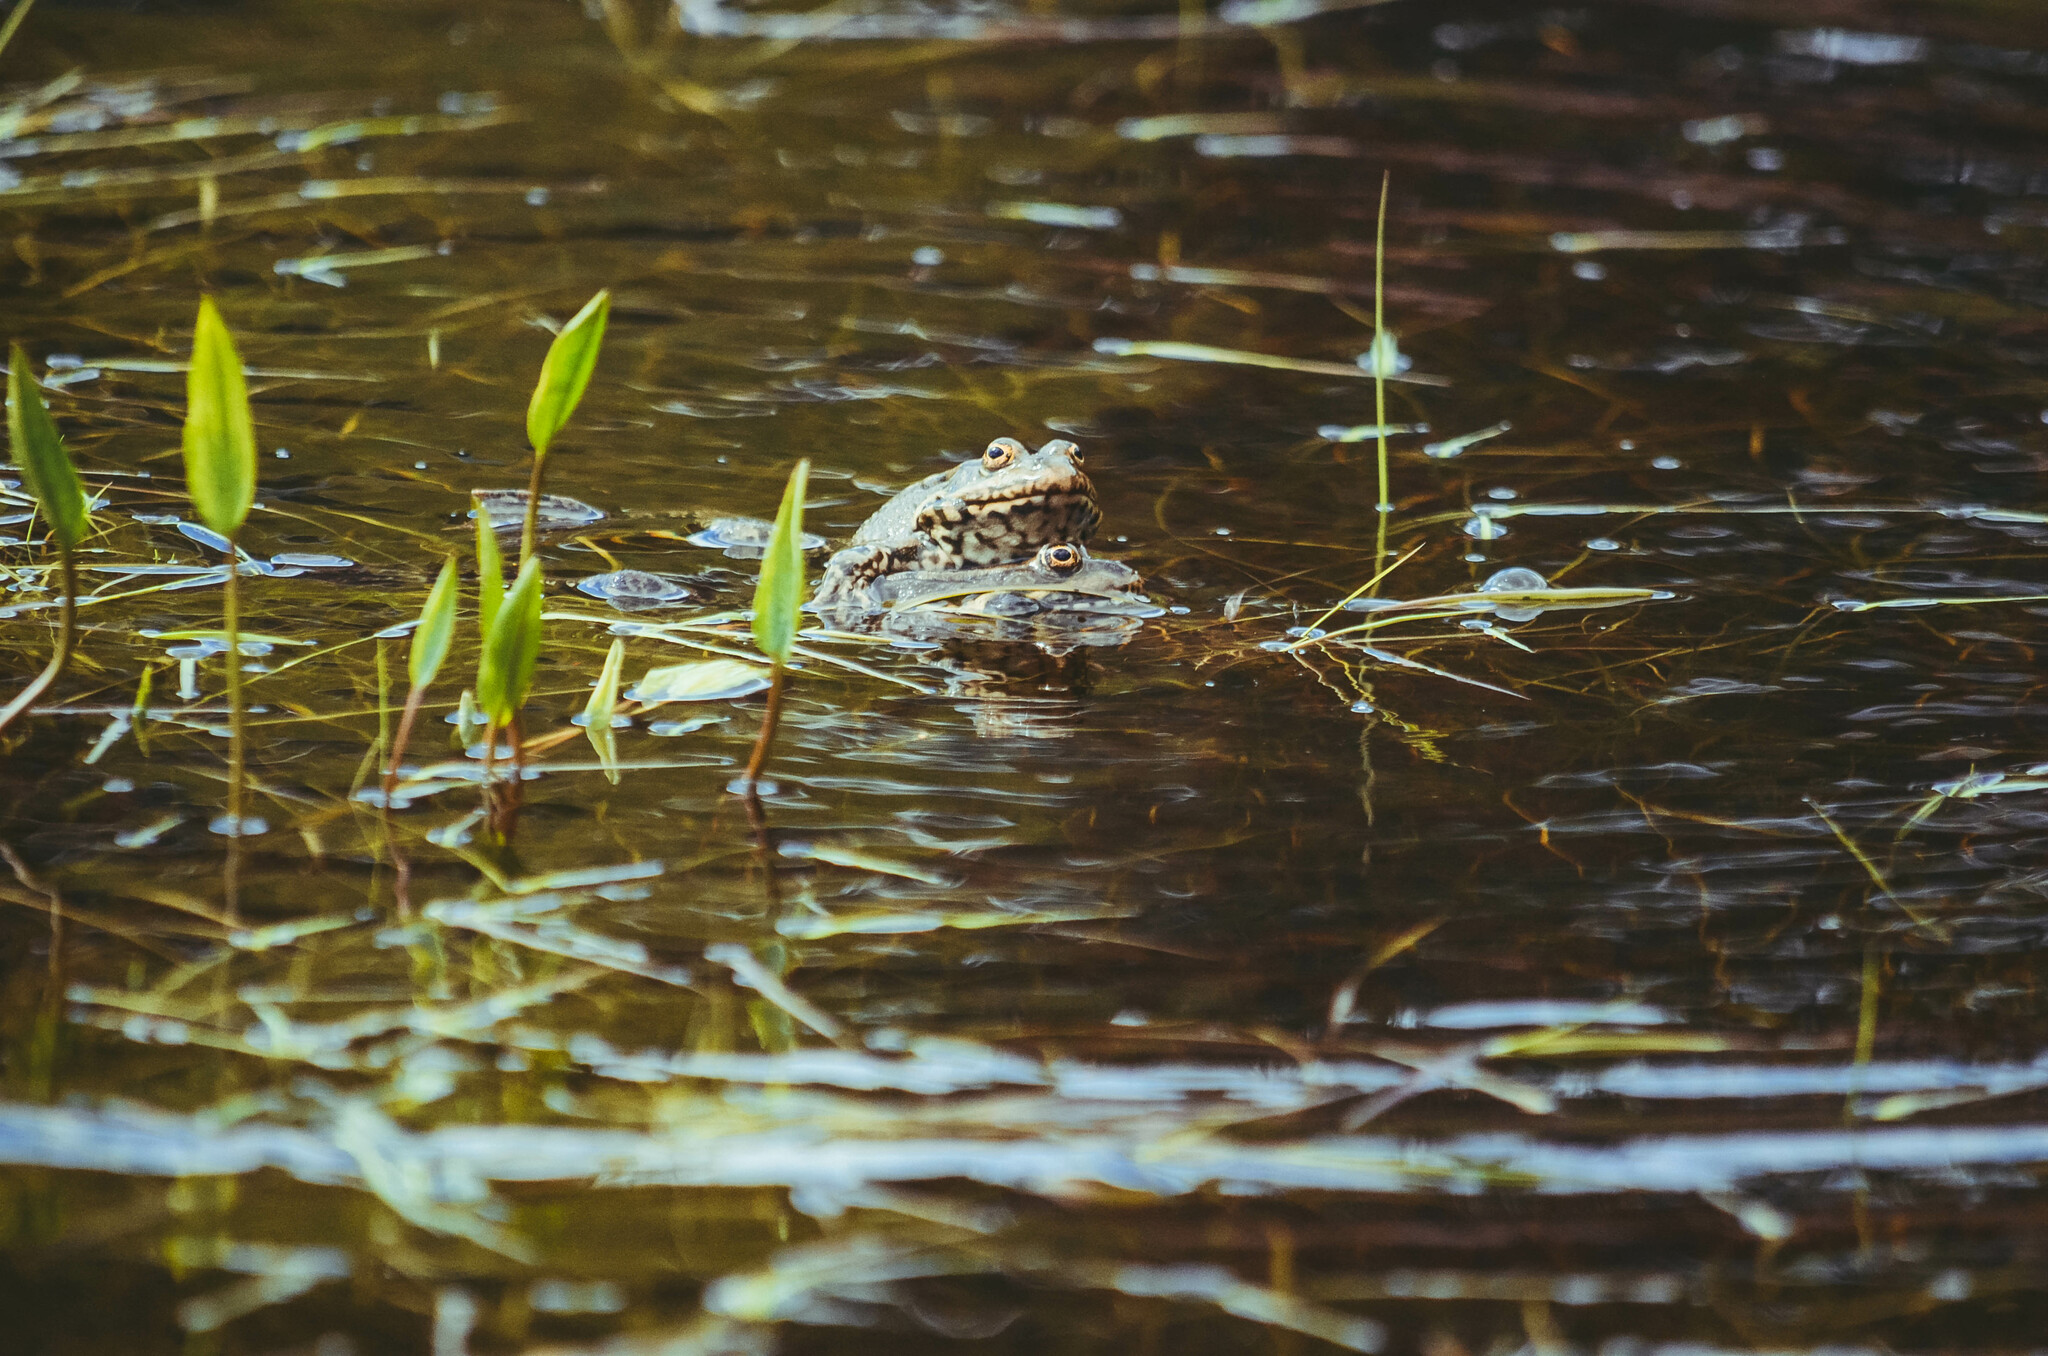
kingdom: Animalia
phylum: Chordata
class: Amphibia
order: Anura
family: Ranidae
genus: Pelophylax
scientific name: Pelophylax ridibundus
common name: Marsh frog
